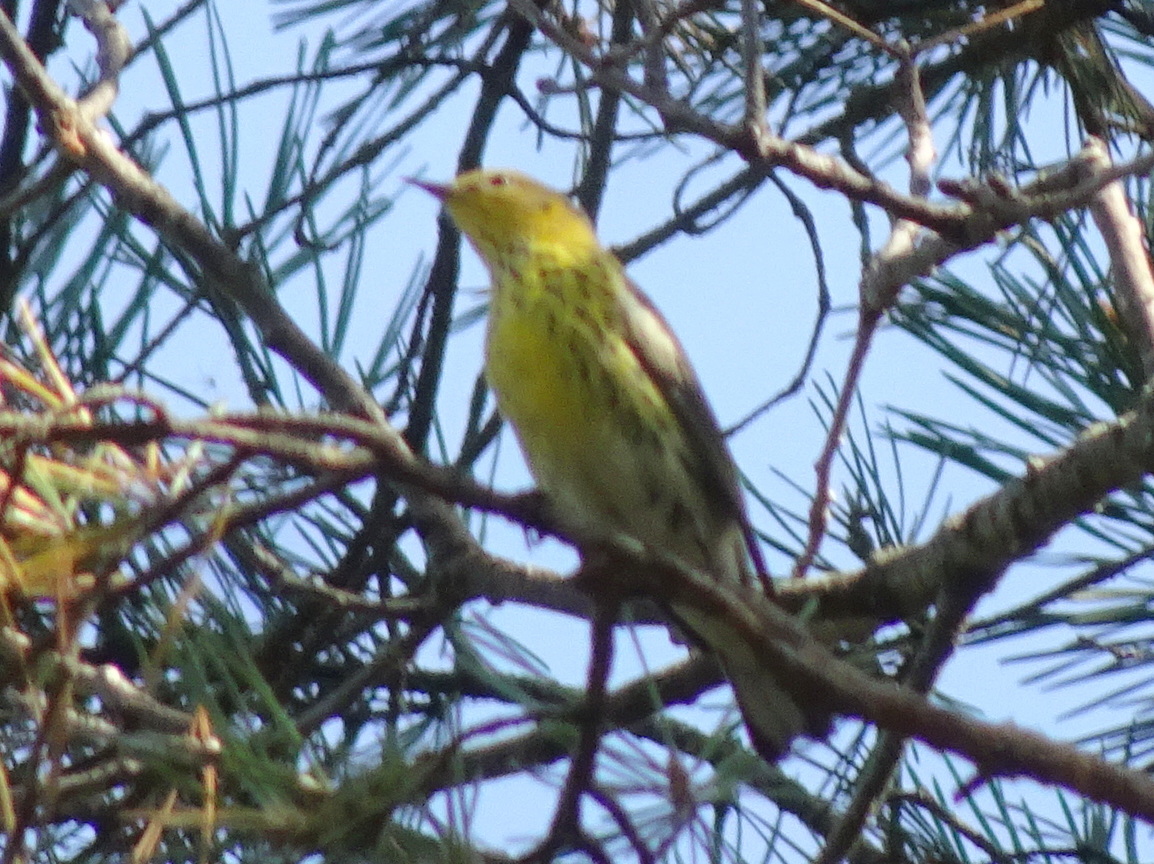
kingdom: Animalia
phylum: Chordata
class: Aves
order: Passeriformes
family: Parulidae
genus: Setophaga
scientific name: Setophaga tigrina
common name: Cape may warbler
